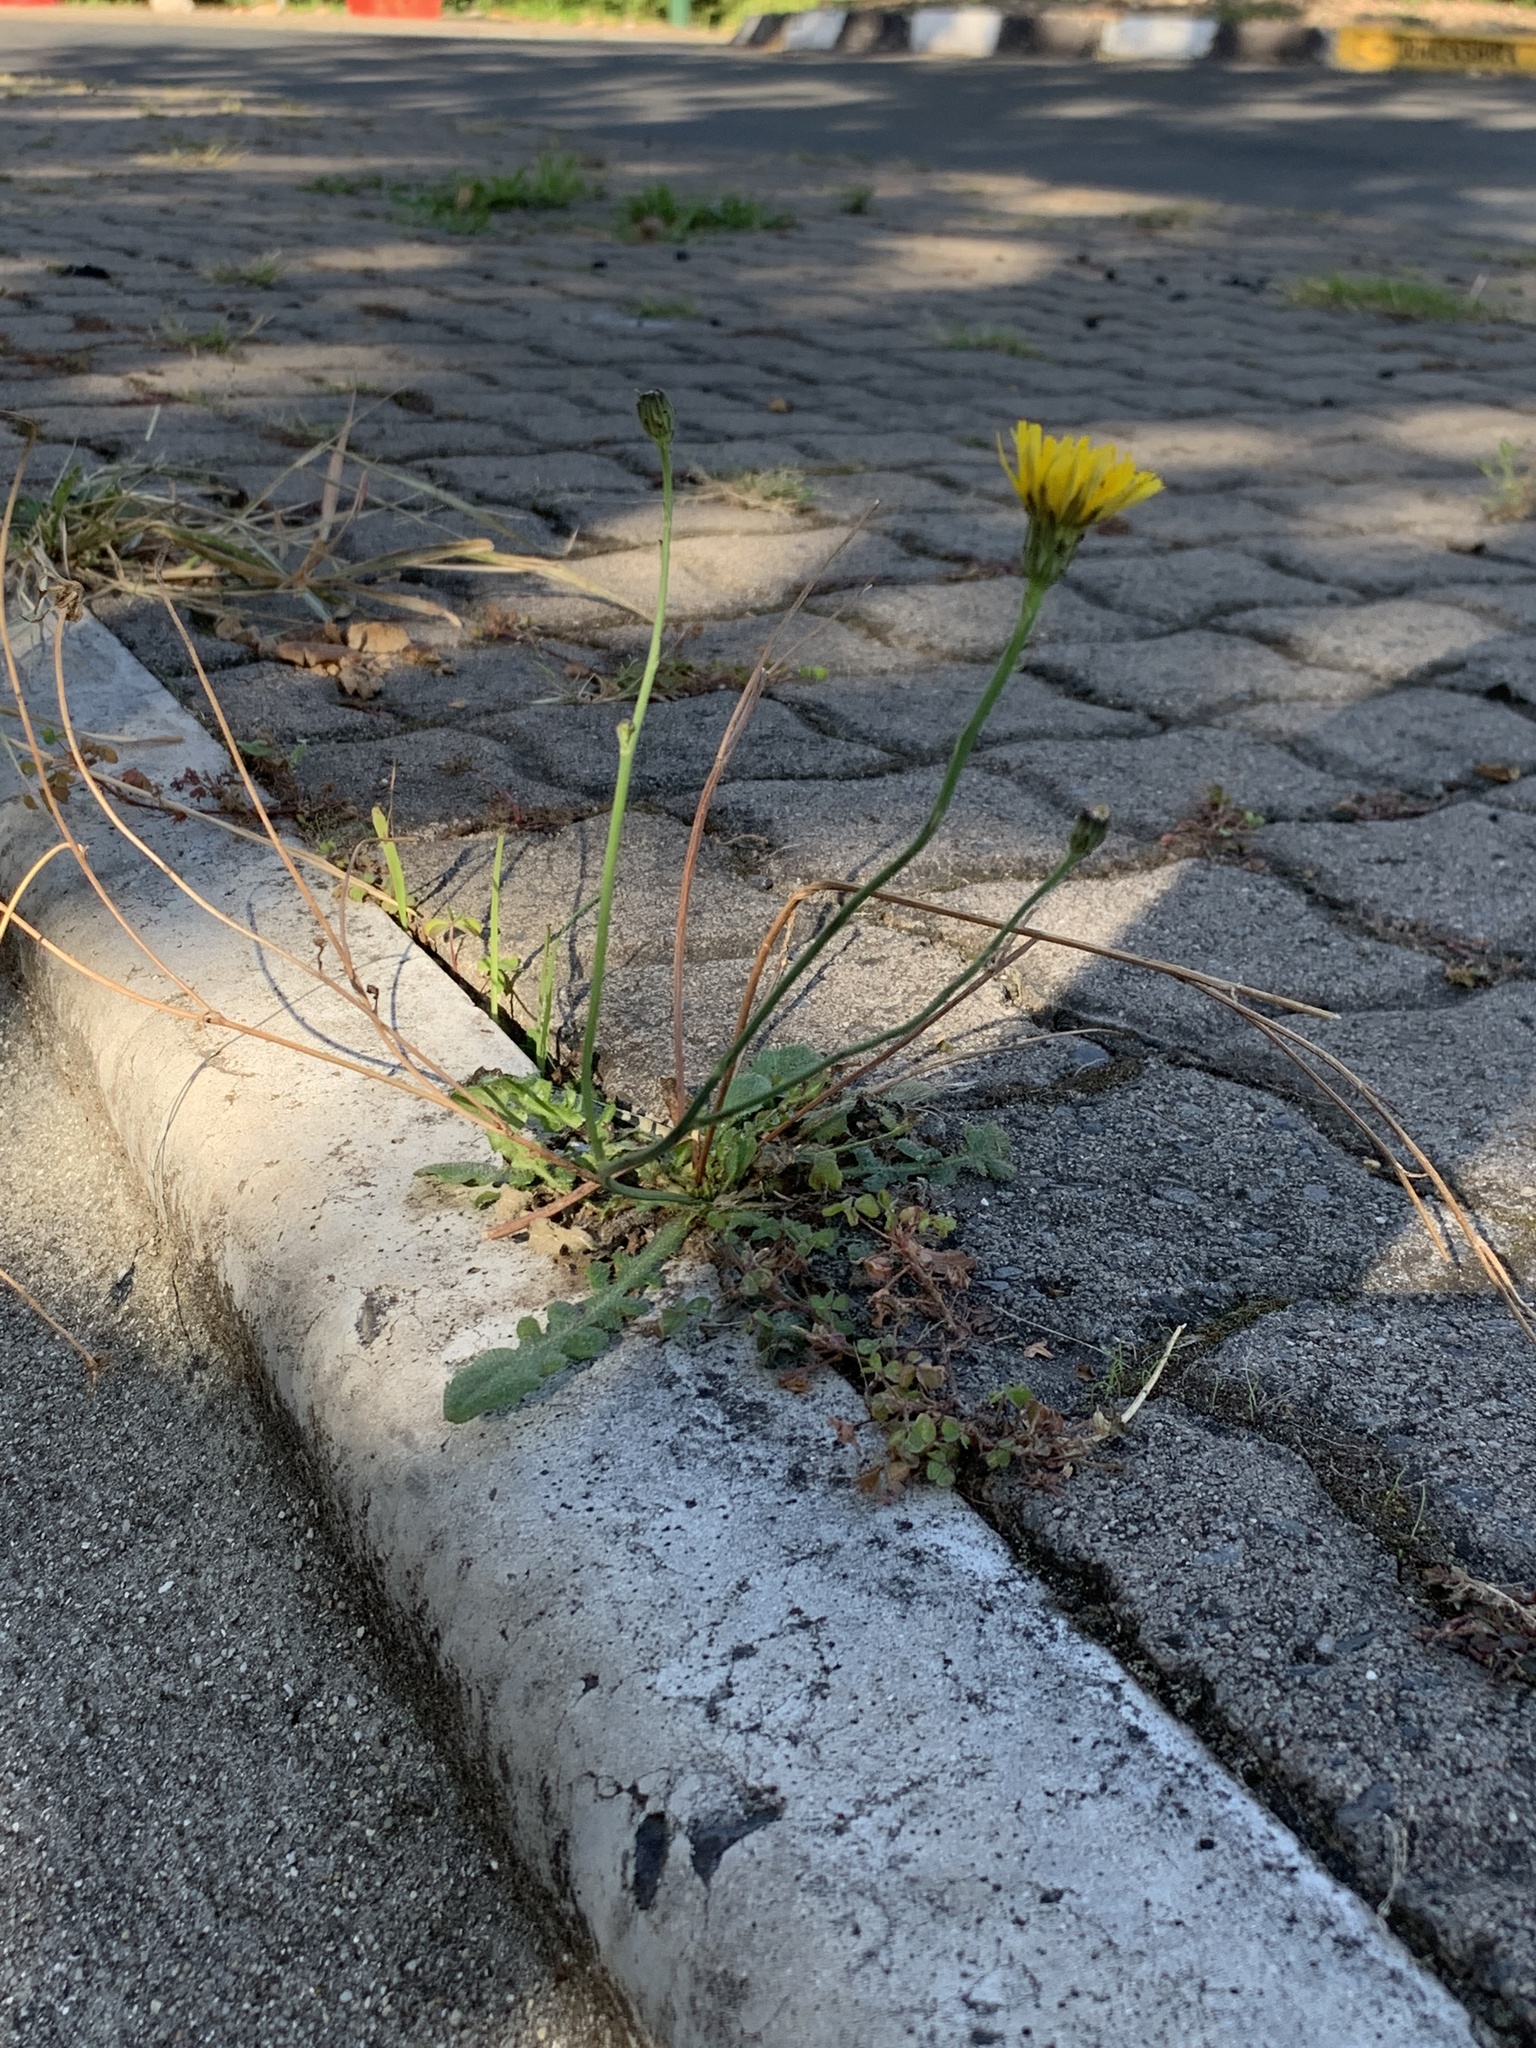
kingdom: Plantae
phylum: Tracheophyta
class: Magnoliopsida
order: Asterales
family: Asteraceae
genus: Hypochaeris
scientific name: Hypochaeris radicata
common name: Flatweed
